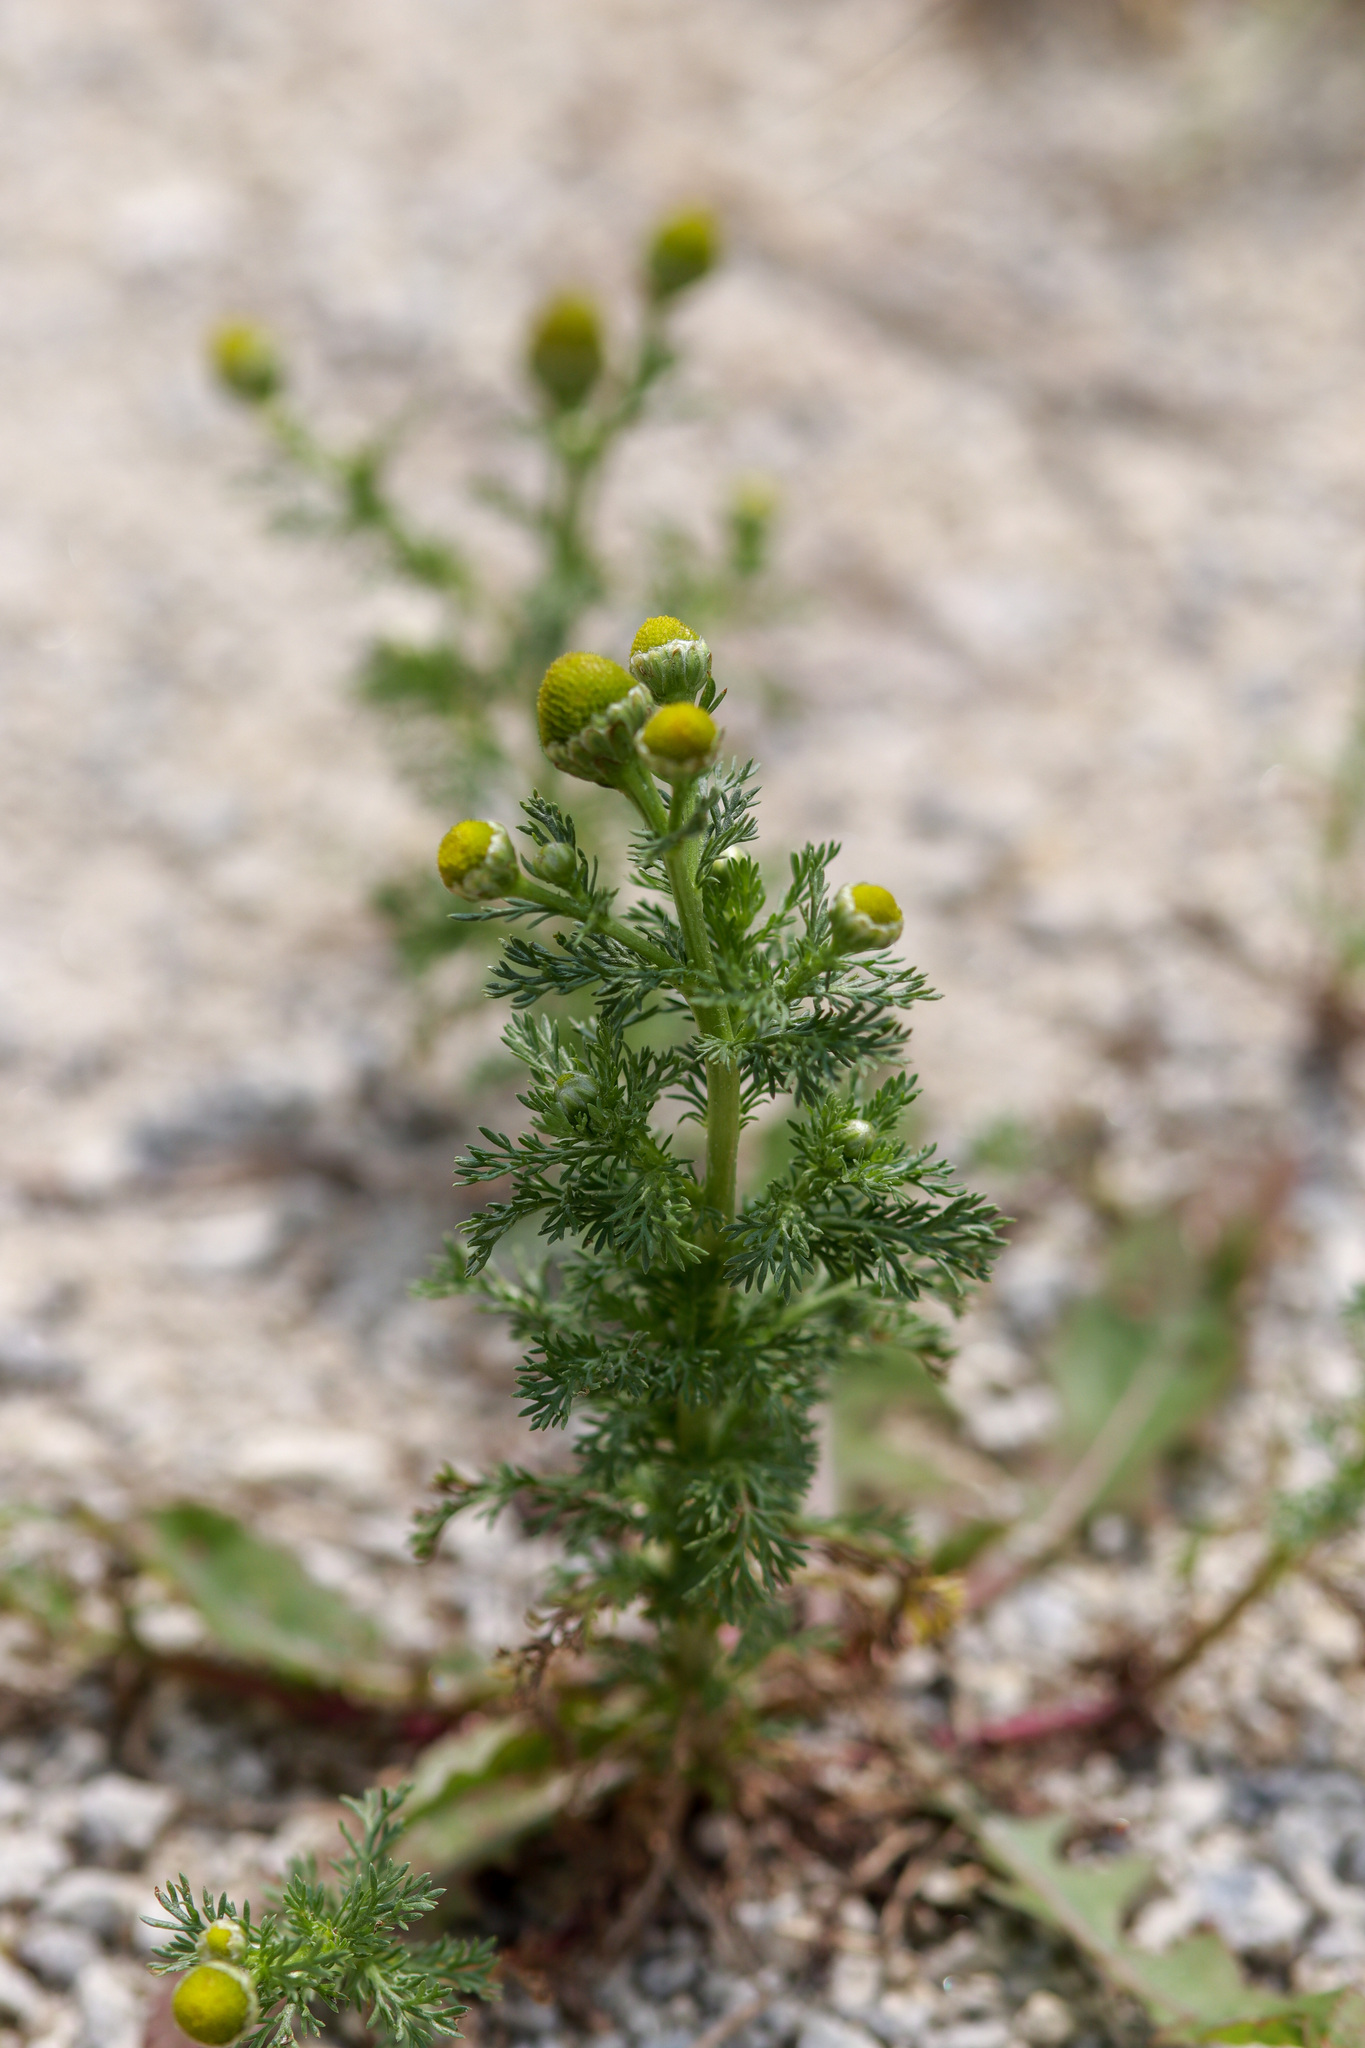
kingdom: Plantae
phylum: Tracheophyta
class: Magnoliopsida
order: Asterales
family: Asteraceae
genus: Matricaria
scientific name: Matricaria discoidea
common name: Disc mayweed
